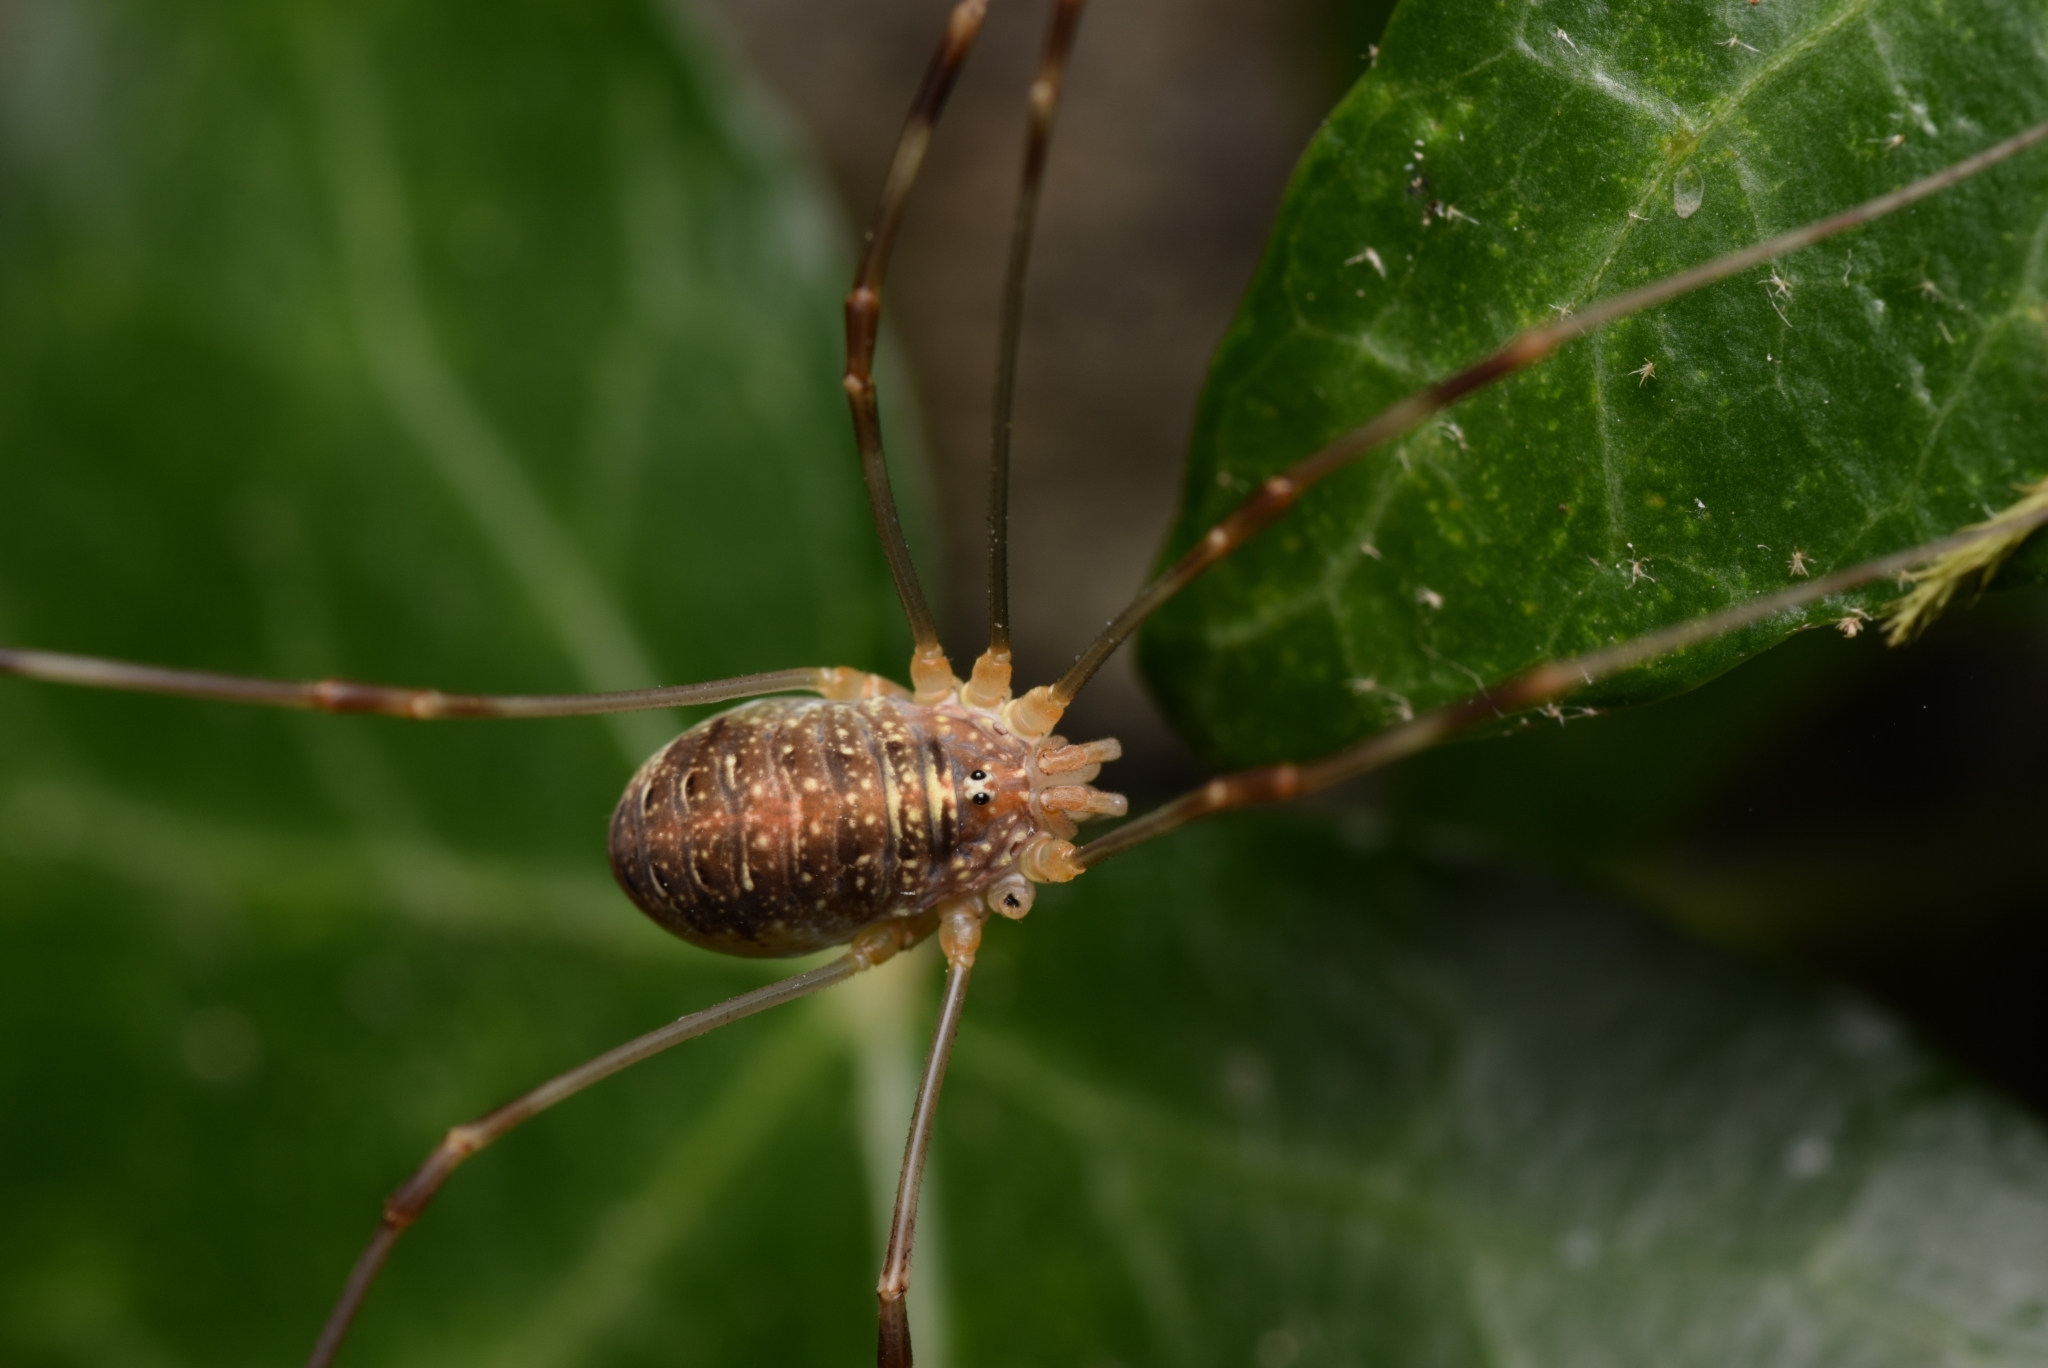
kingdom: Animalia
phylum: Arthropoda
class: Arachnida
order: Opiliones
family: Phalangiidae
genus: Opilio
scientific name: Opilio canestrinii
